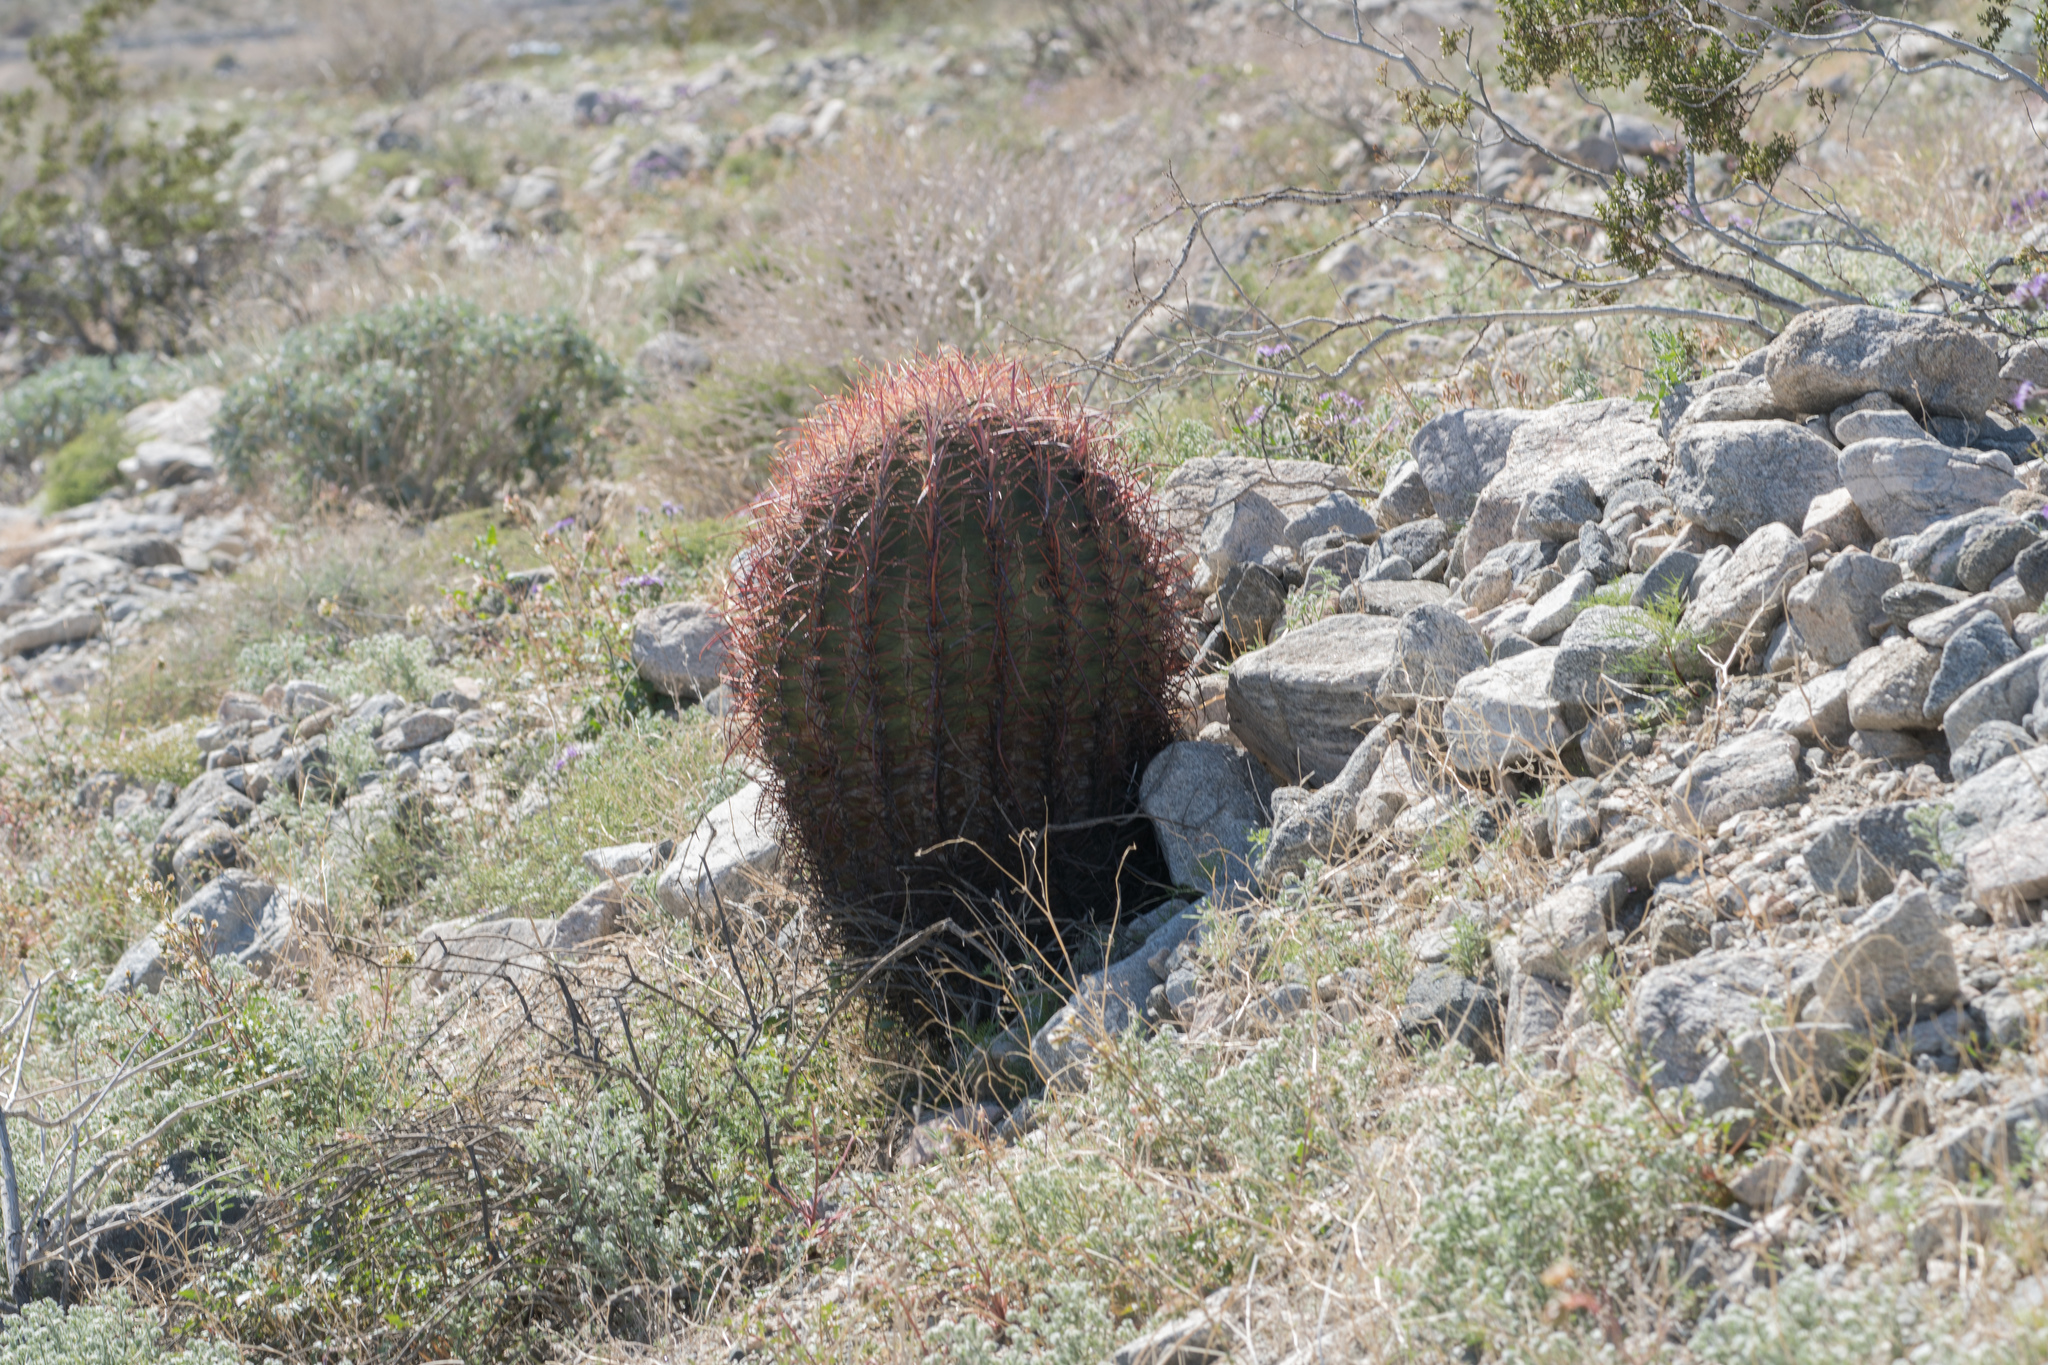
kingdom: Plantae
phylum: Tracheophyta
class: Magnoliopsida
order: Caryophyllales
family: Cactaceae
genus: Ferocactus
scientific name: Ferocactus cylindraceus
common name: California barrel cactus
